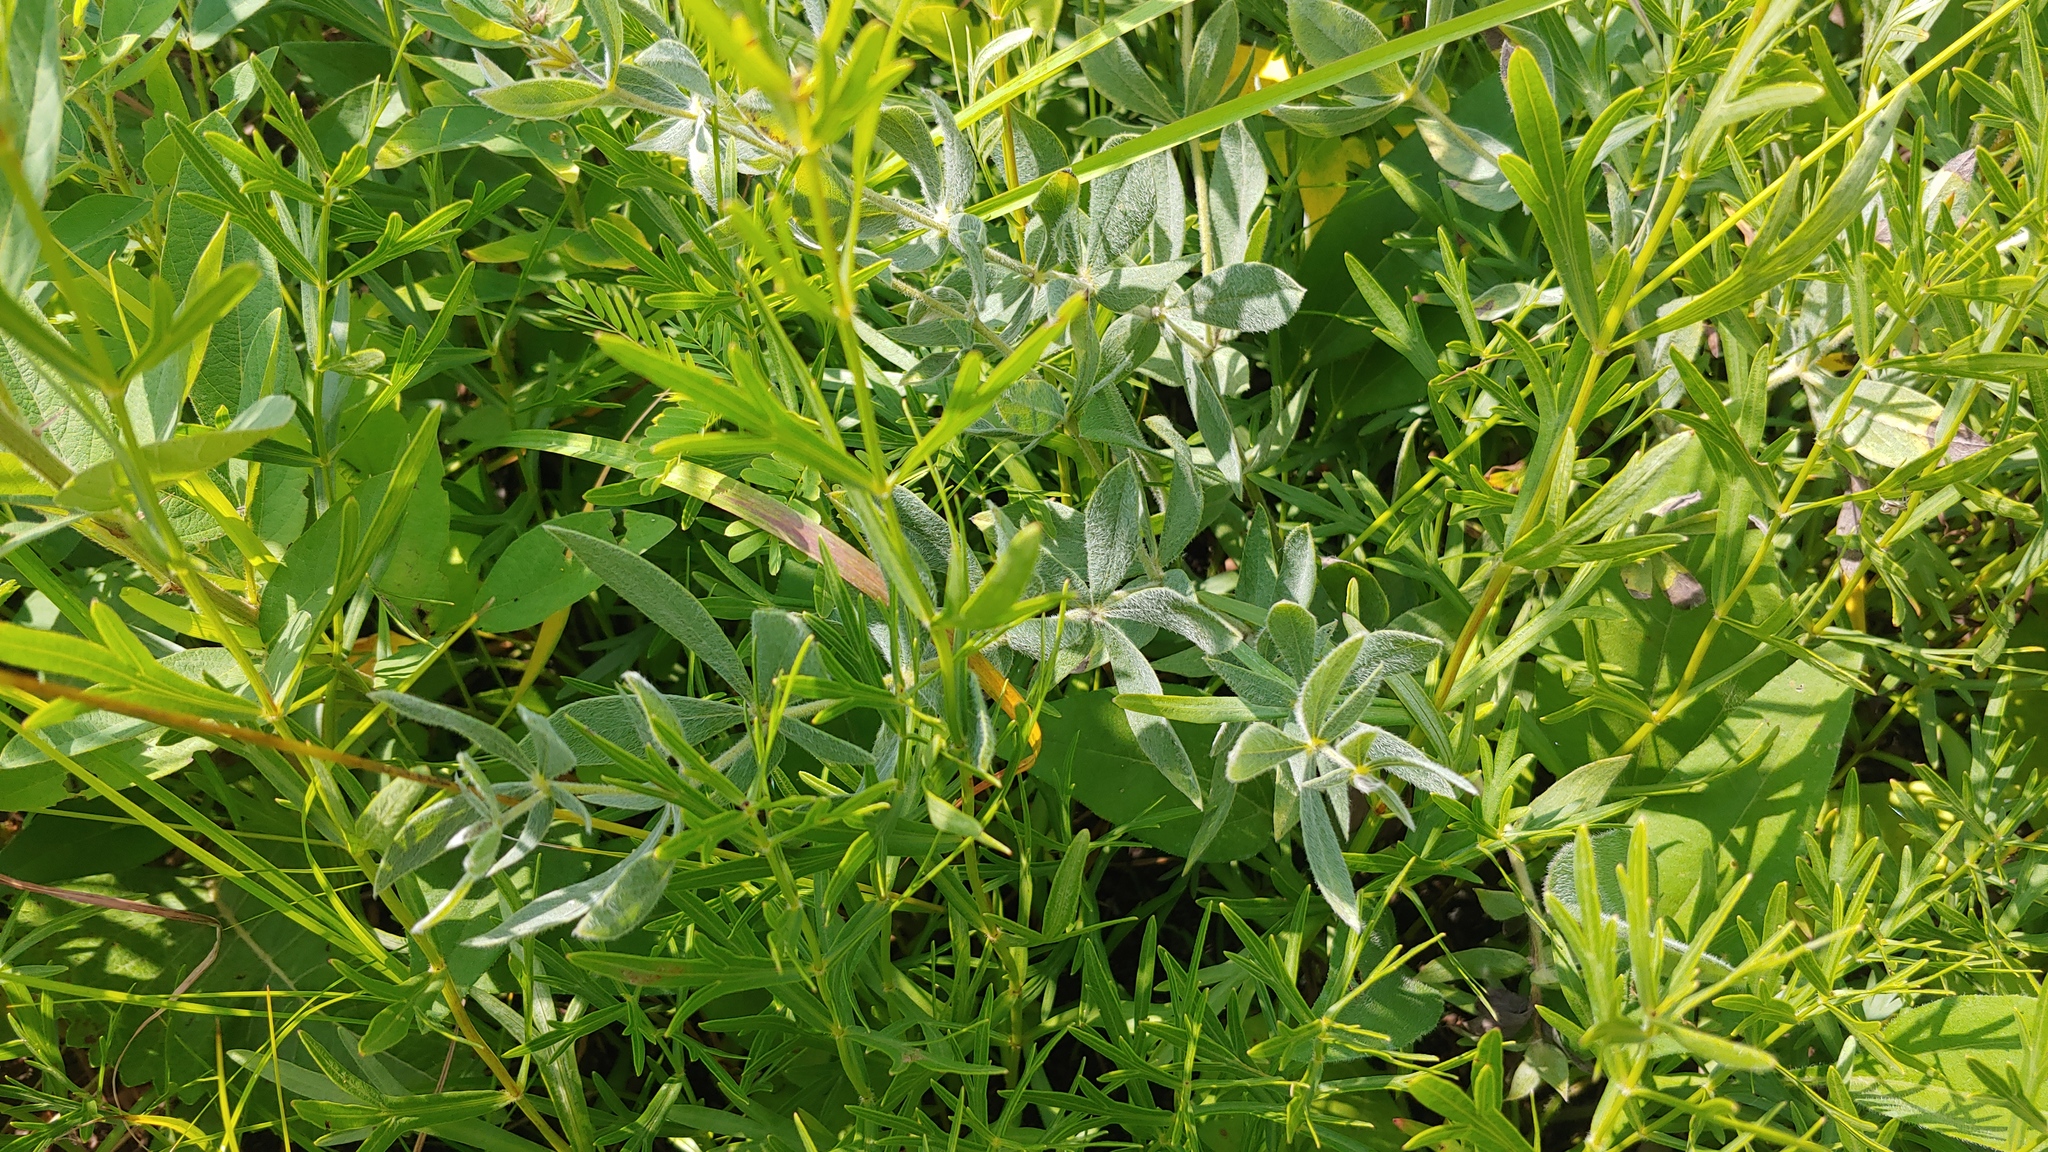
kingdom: Plantae
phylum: Tracheophyta
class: Magnoliopsida
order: Fabales
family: Fabaceae
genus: Baptisia
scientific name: Baptisia bracteata
